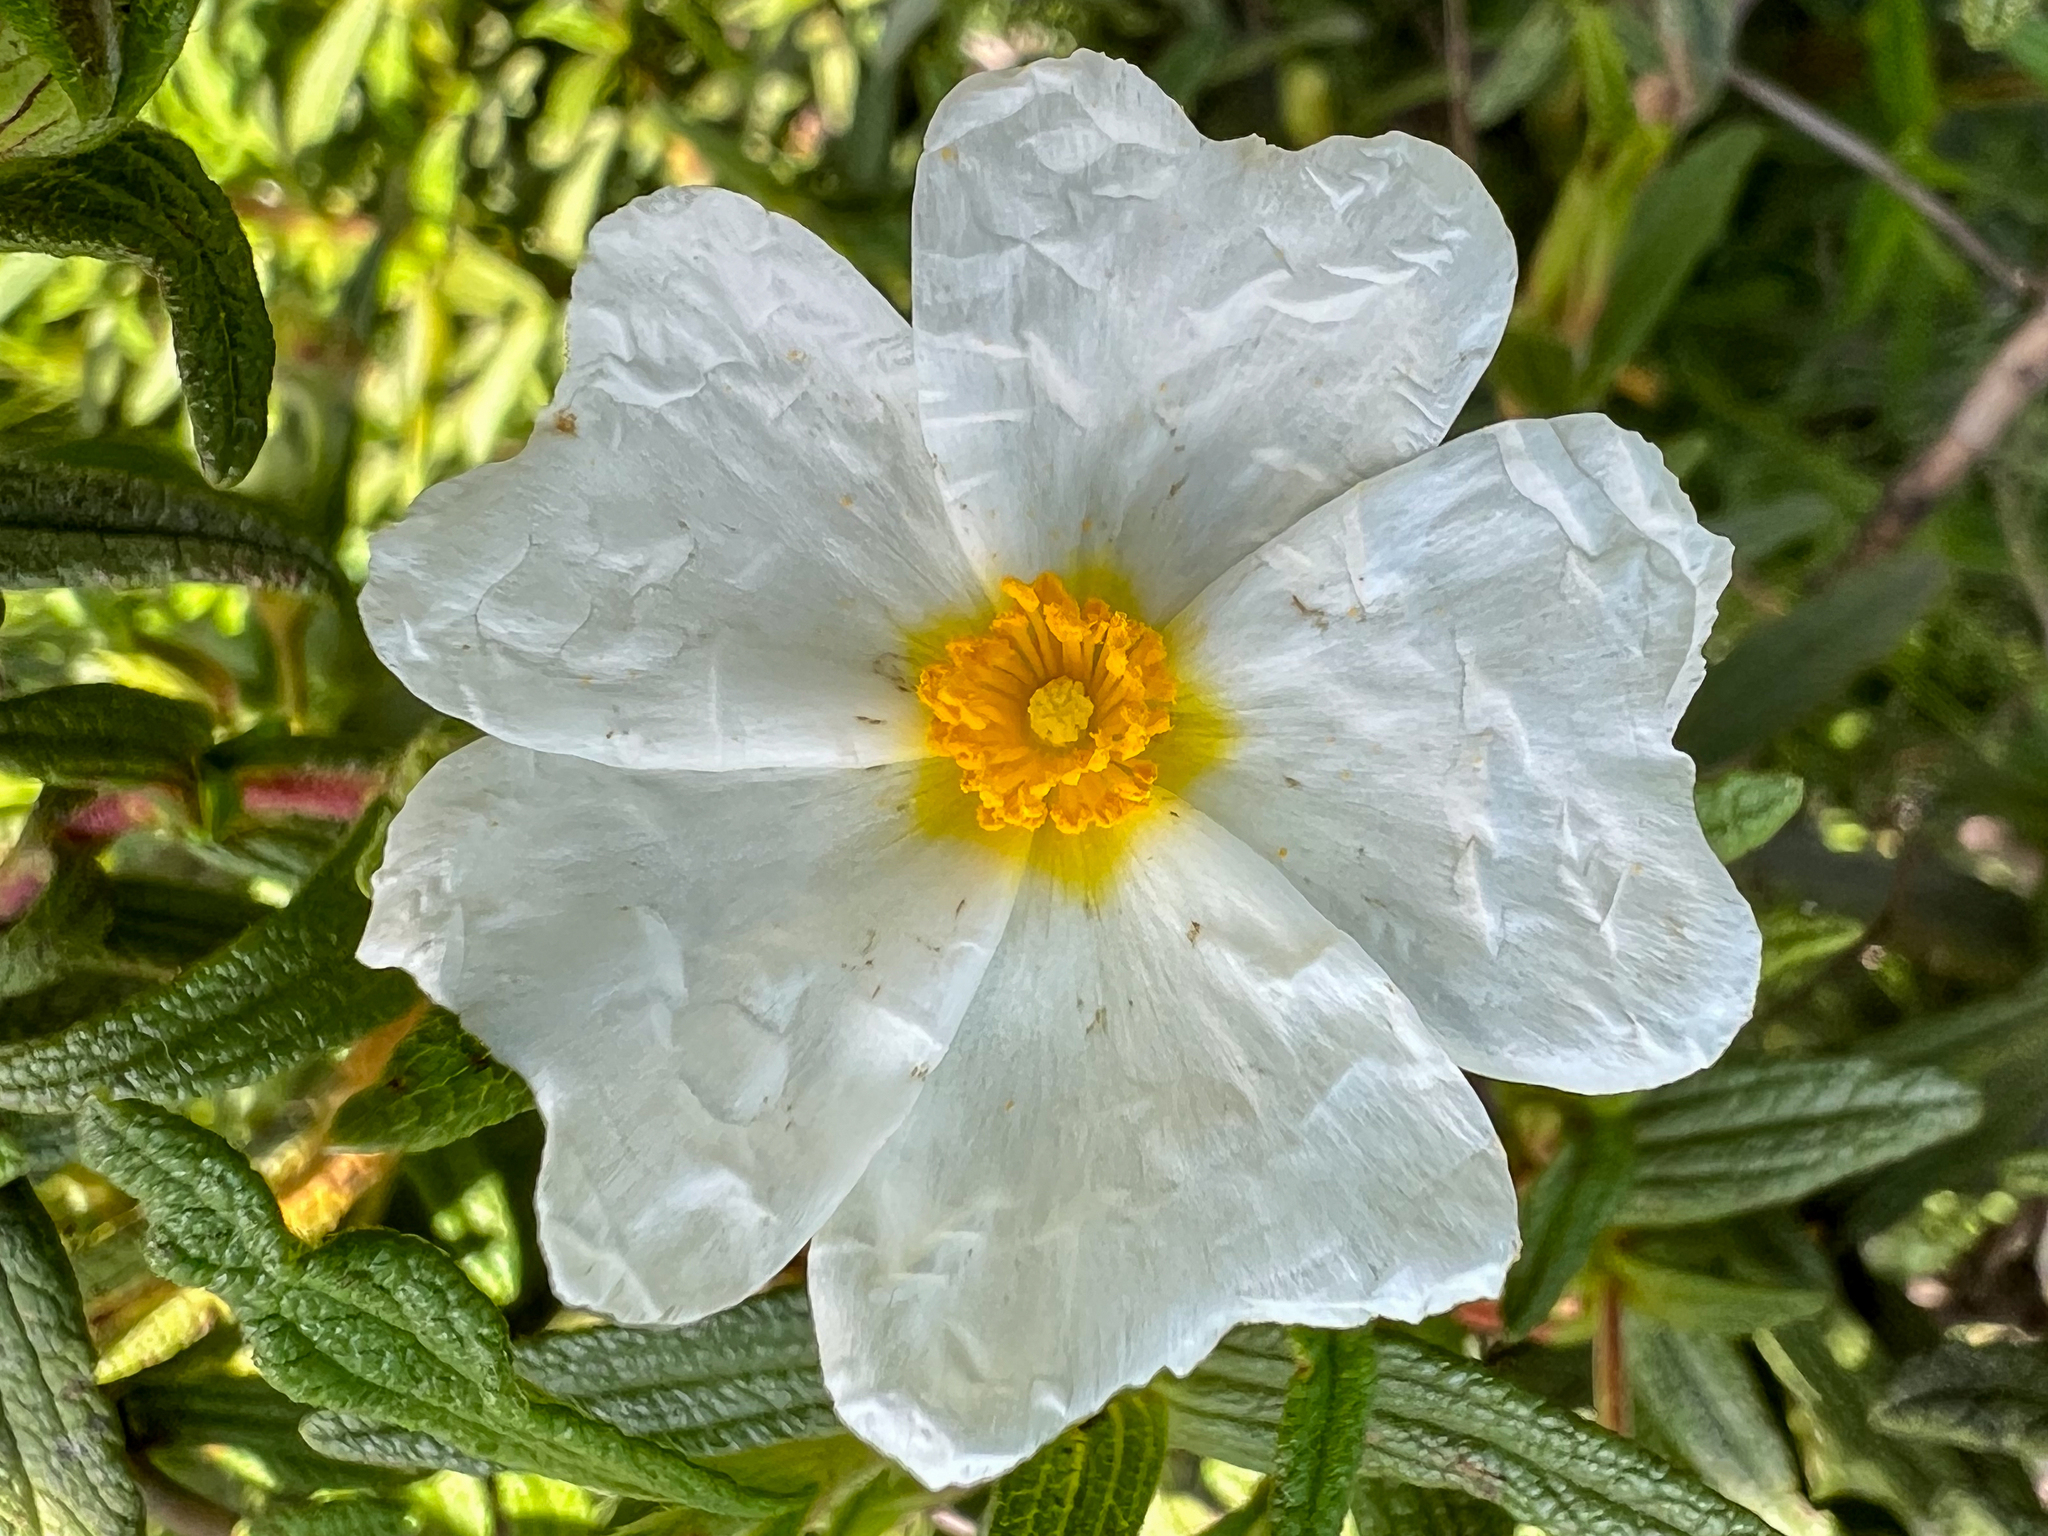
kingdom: Plantae
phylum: Tracheophyta
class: Magnoliopsida
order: Malvales
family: Cistaceae
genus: Cistus
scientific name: Cistus monspeliensis
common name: Montpelier cistus
